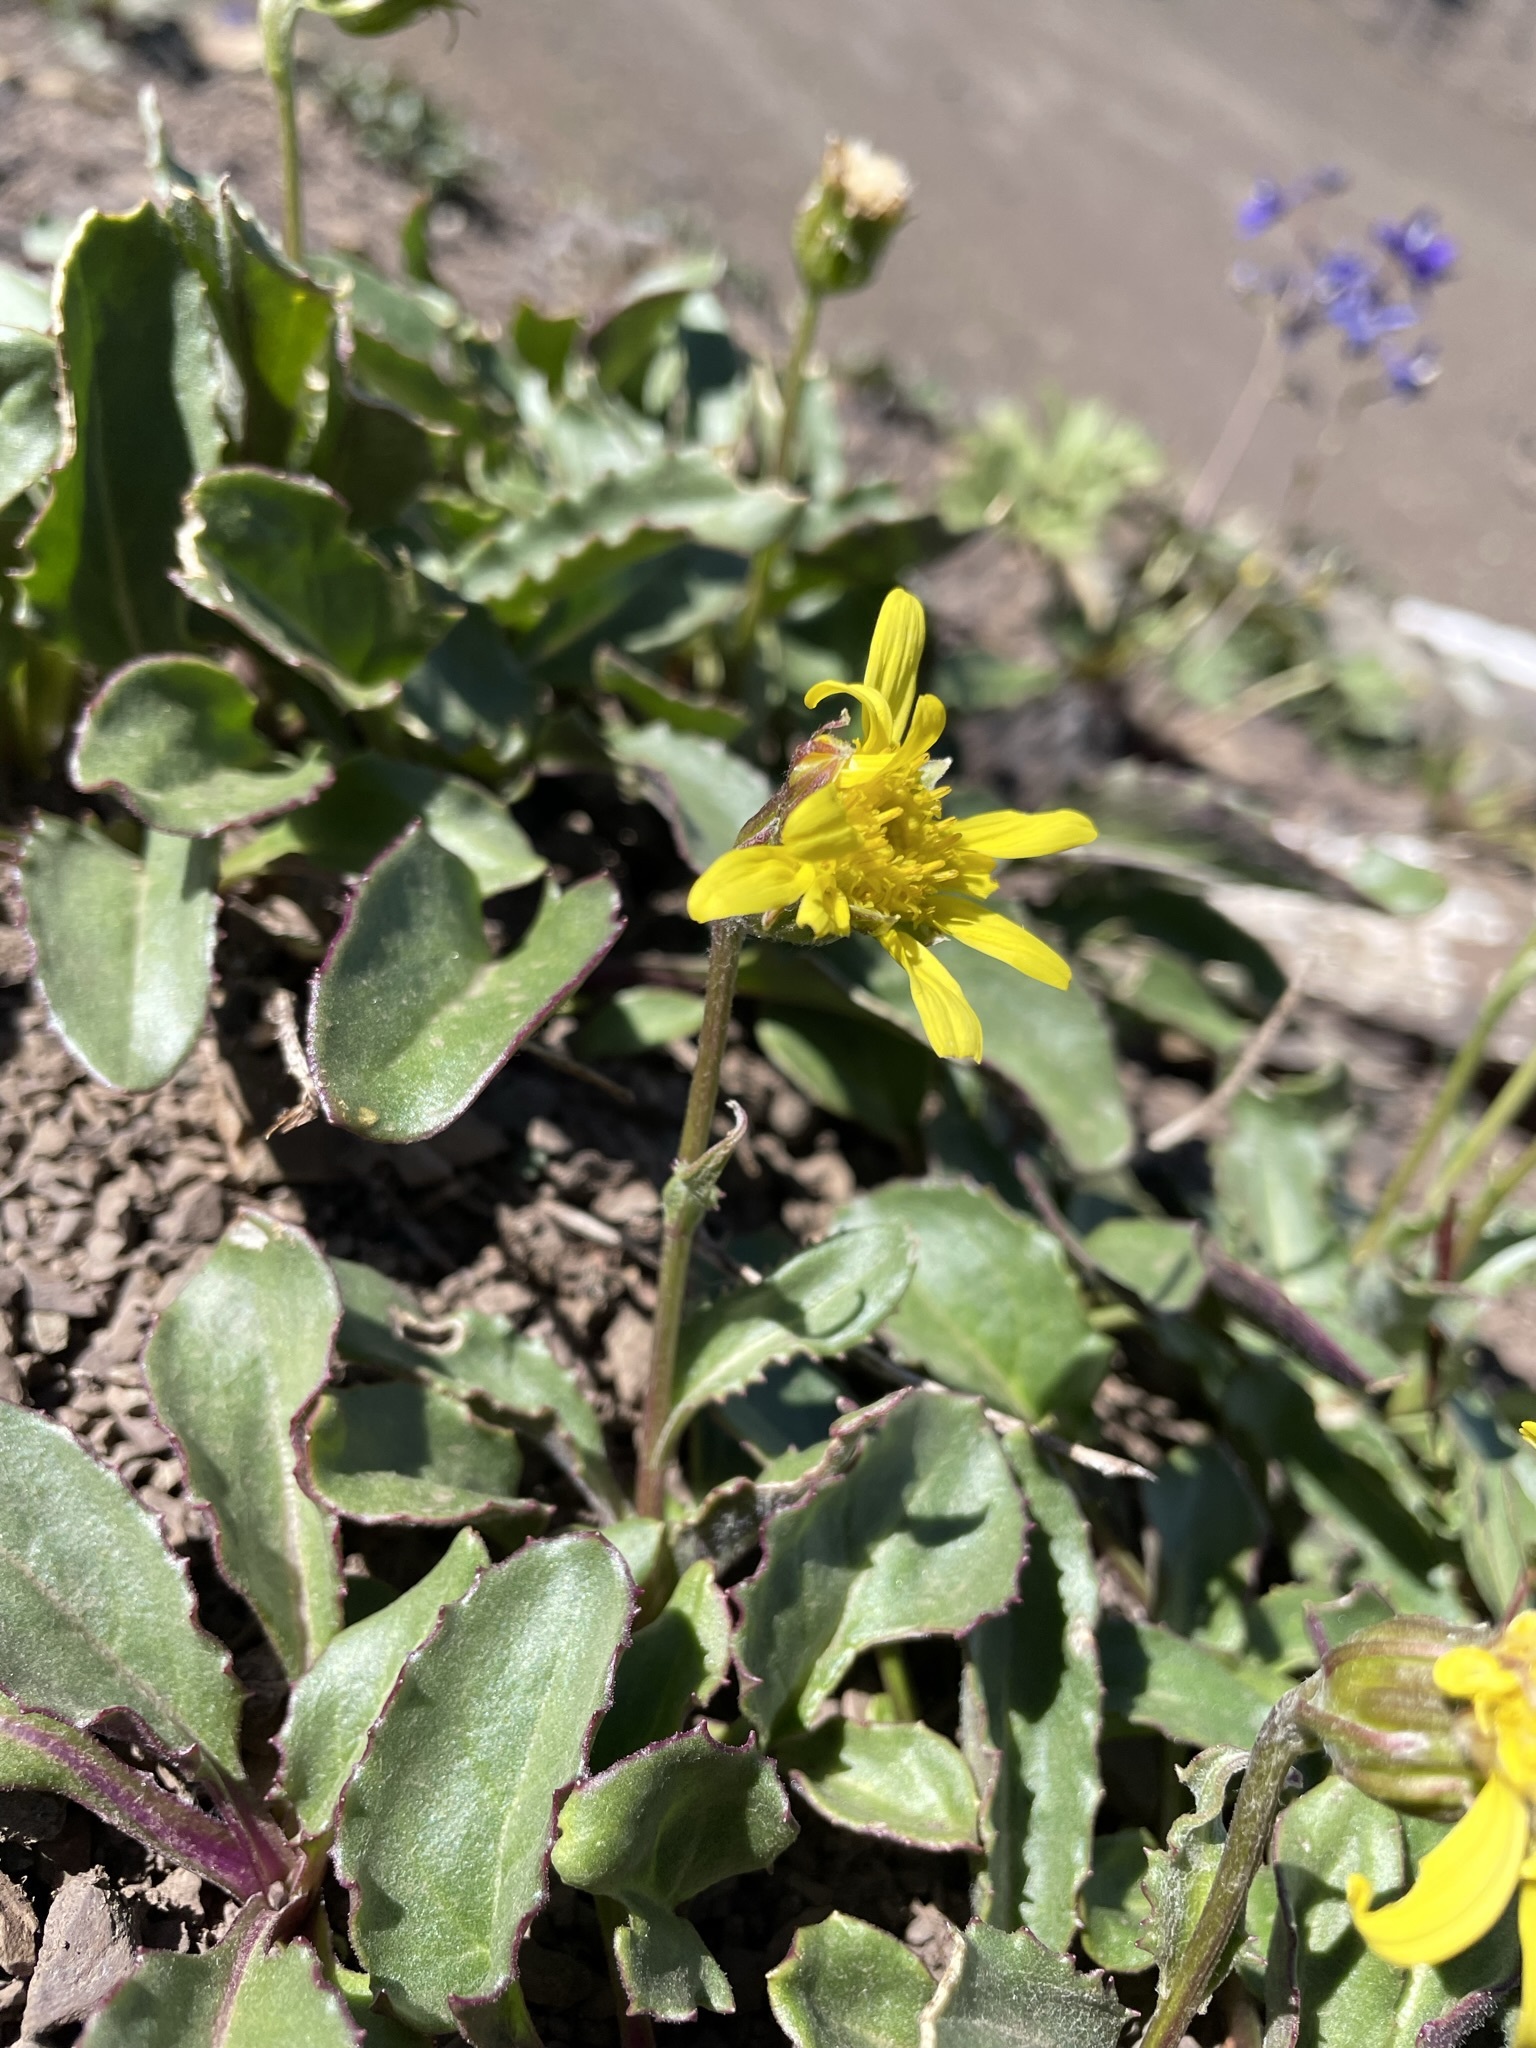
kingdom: Plantae
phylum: Tracheophyta
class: Magnoliopsida
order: Asterales
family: Asteraceae
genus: Senecio
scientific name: Senecio neowebsteri
